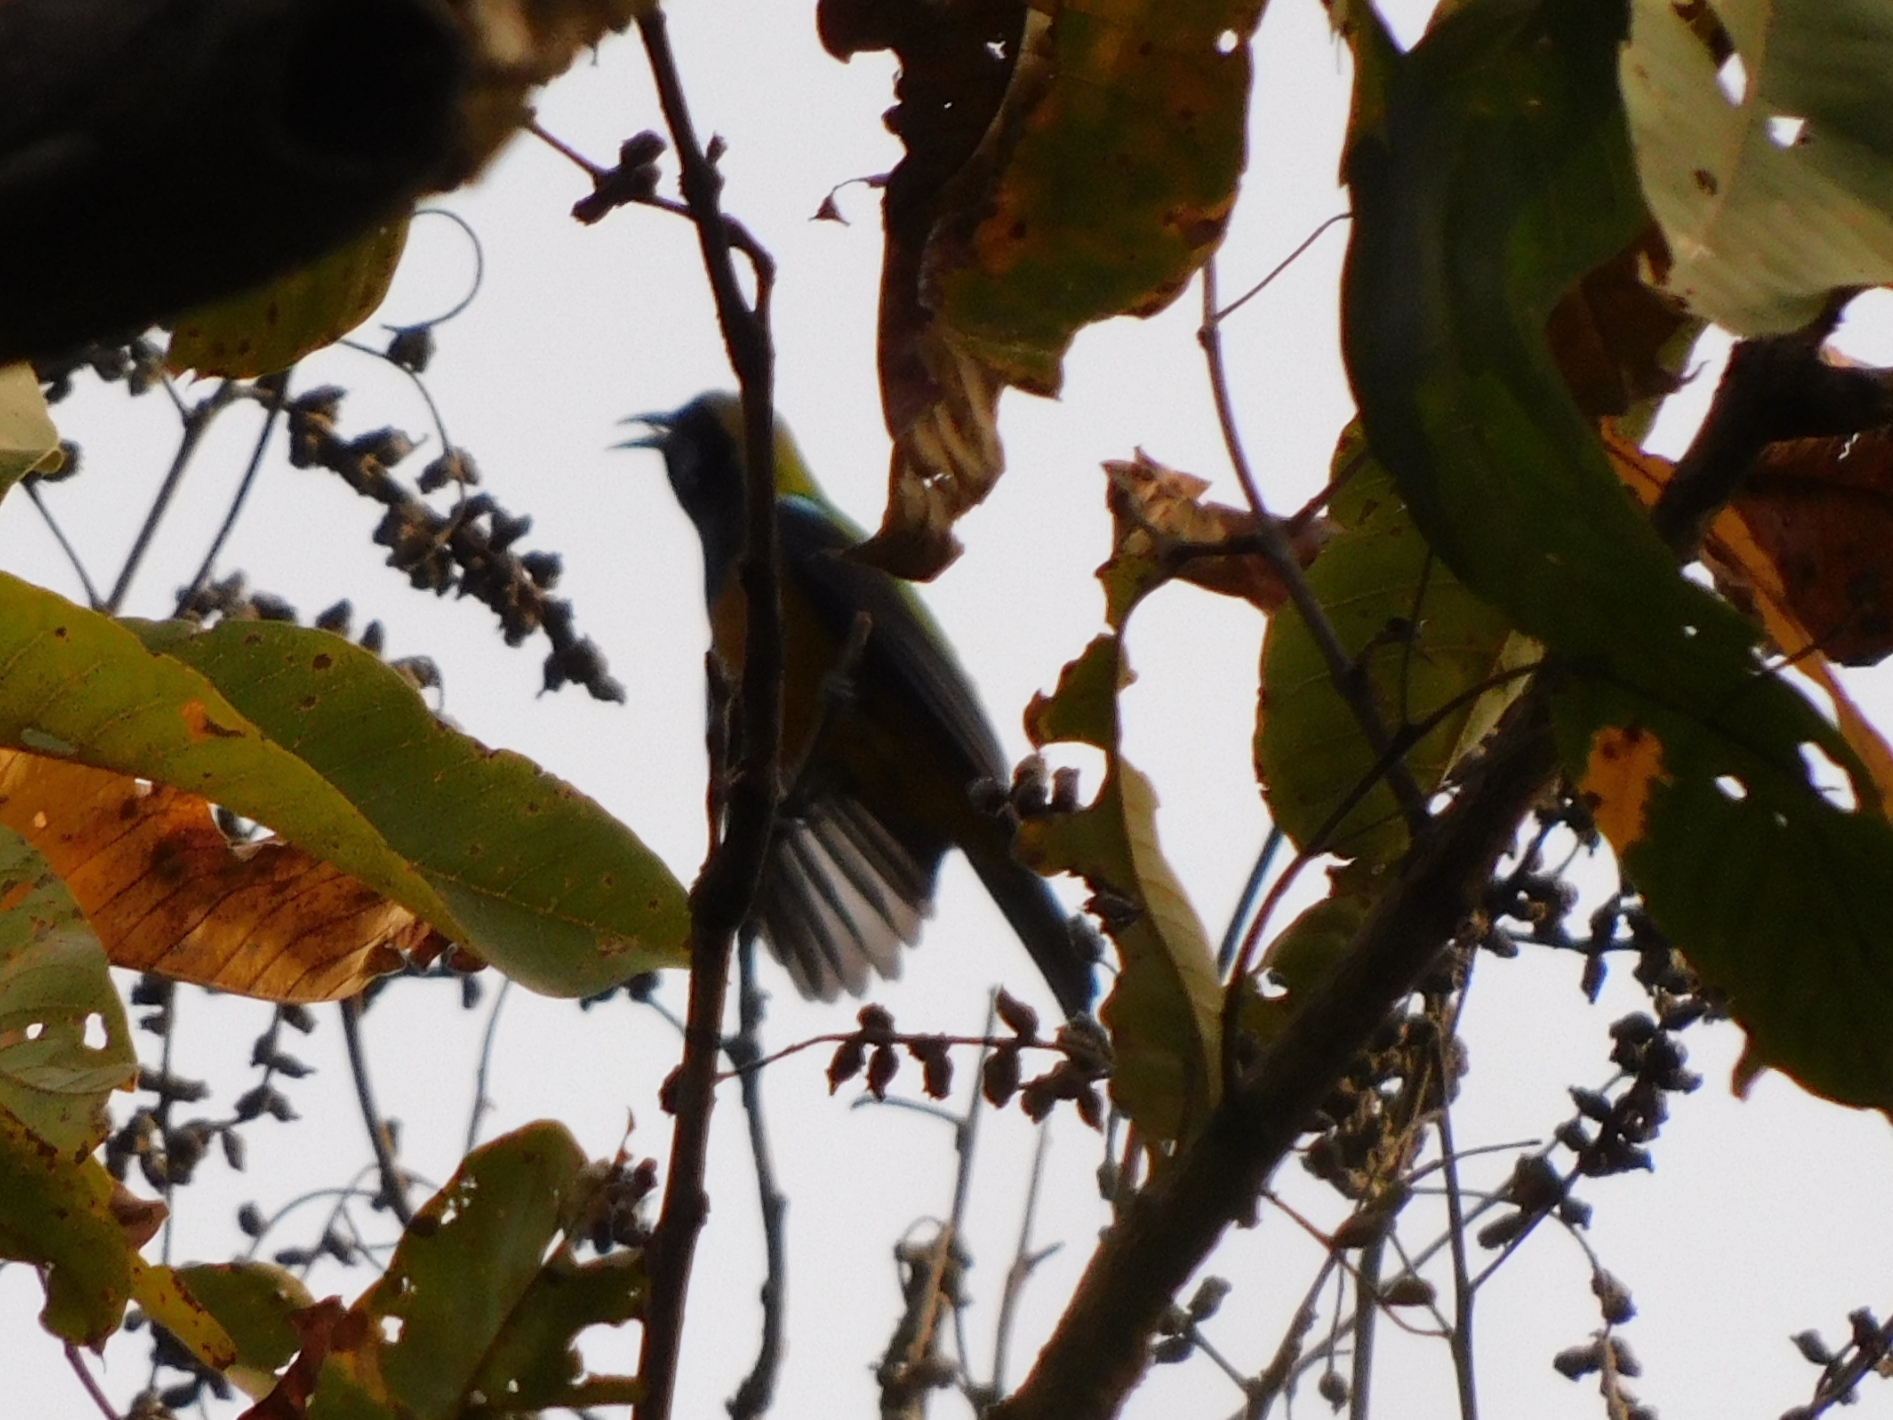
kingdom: Animalia
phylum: Chordata
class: Aves
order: Passeriformes
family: Chloropseidae
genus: Chloropsis
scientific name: Chloropsis hardwickii
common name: Orange-bellied leafbird
